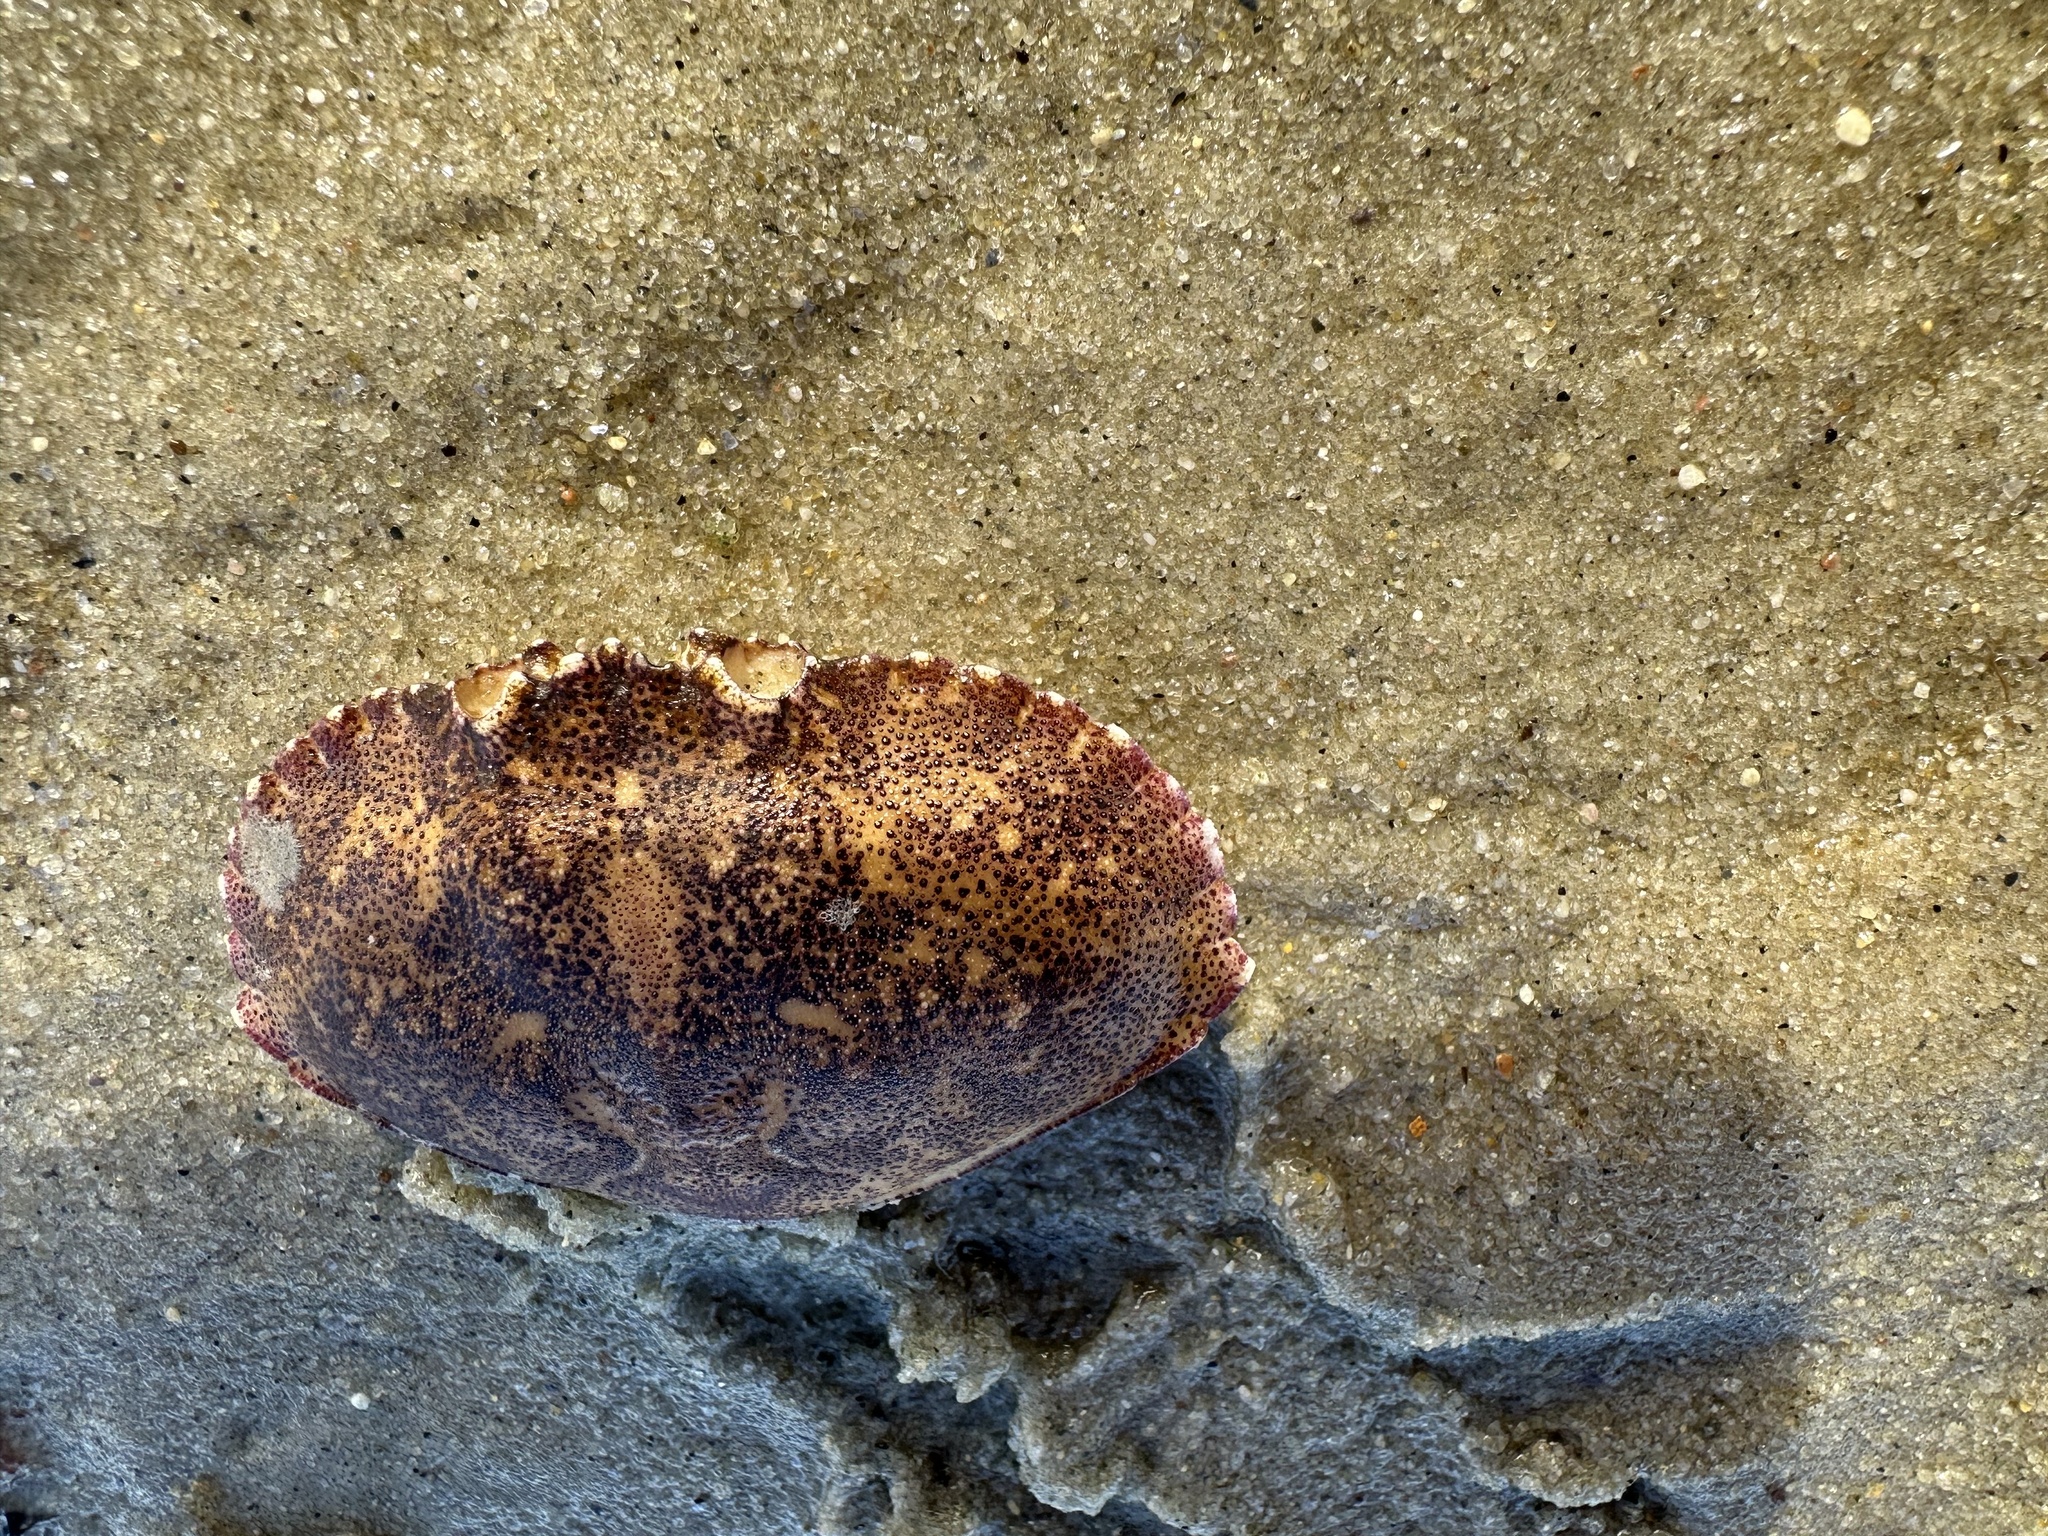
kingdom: Animalia
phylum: Arthropoda
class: Malacostraca
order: Decapoda
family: Cancridae
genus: Cancer
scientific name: Cancer irroratus
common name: Atlantic rock crab
